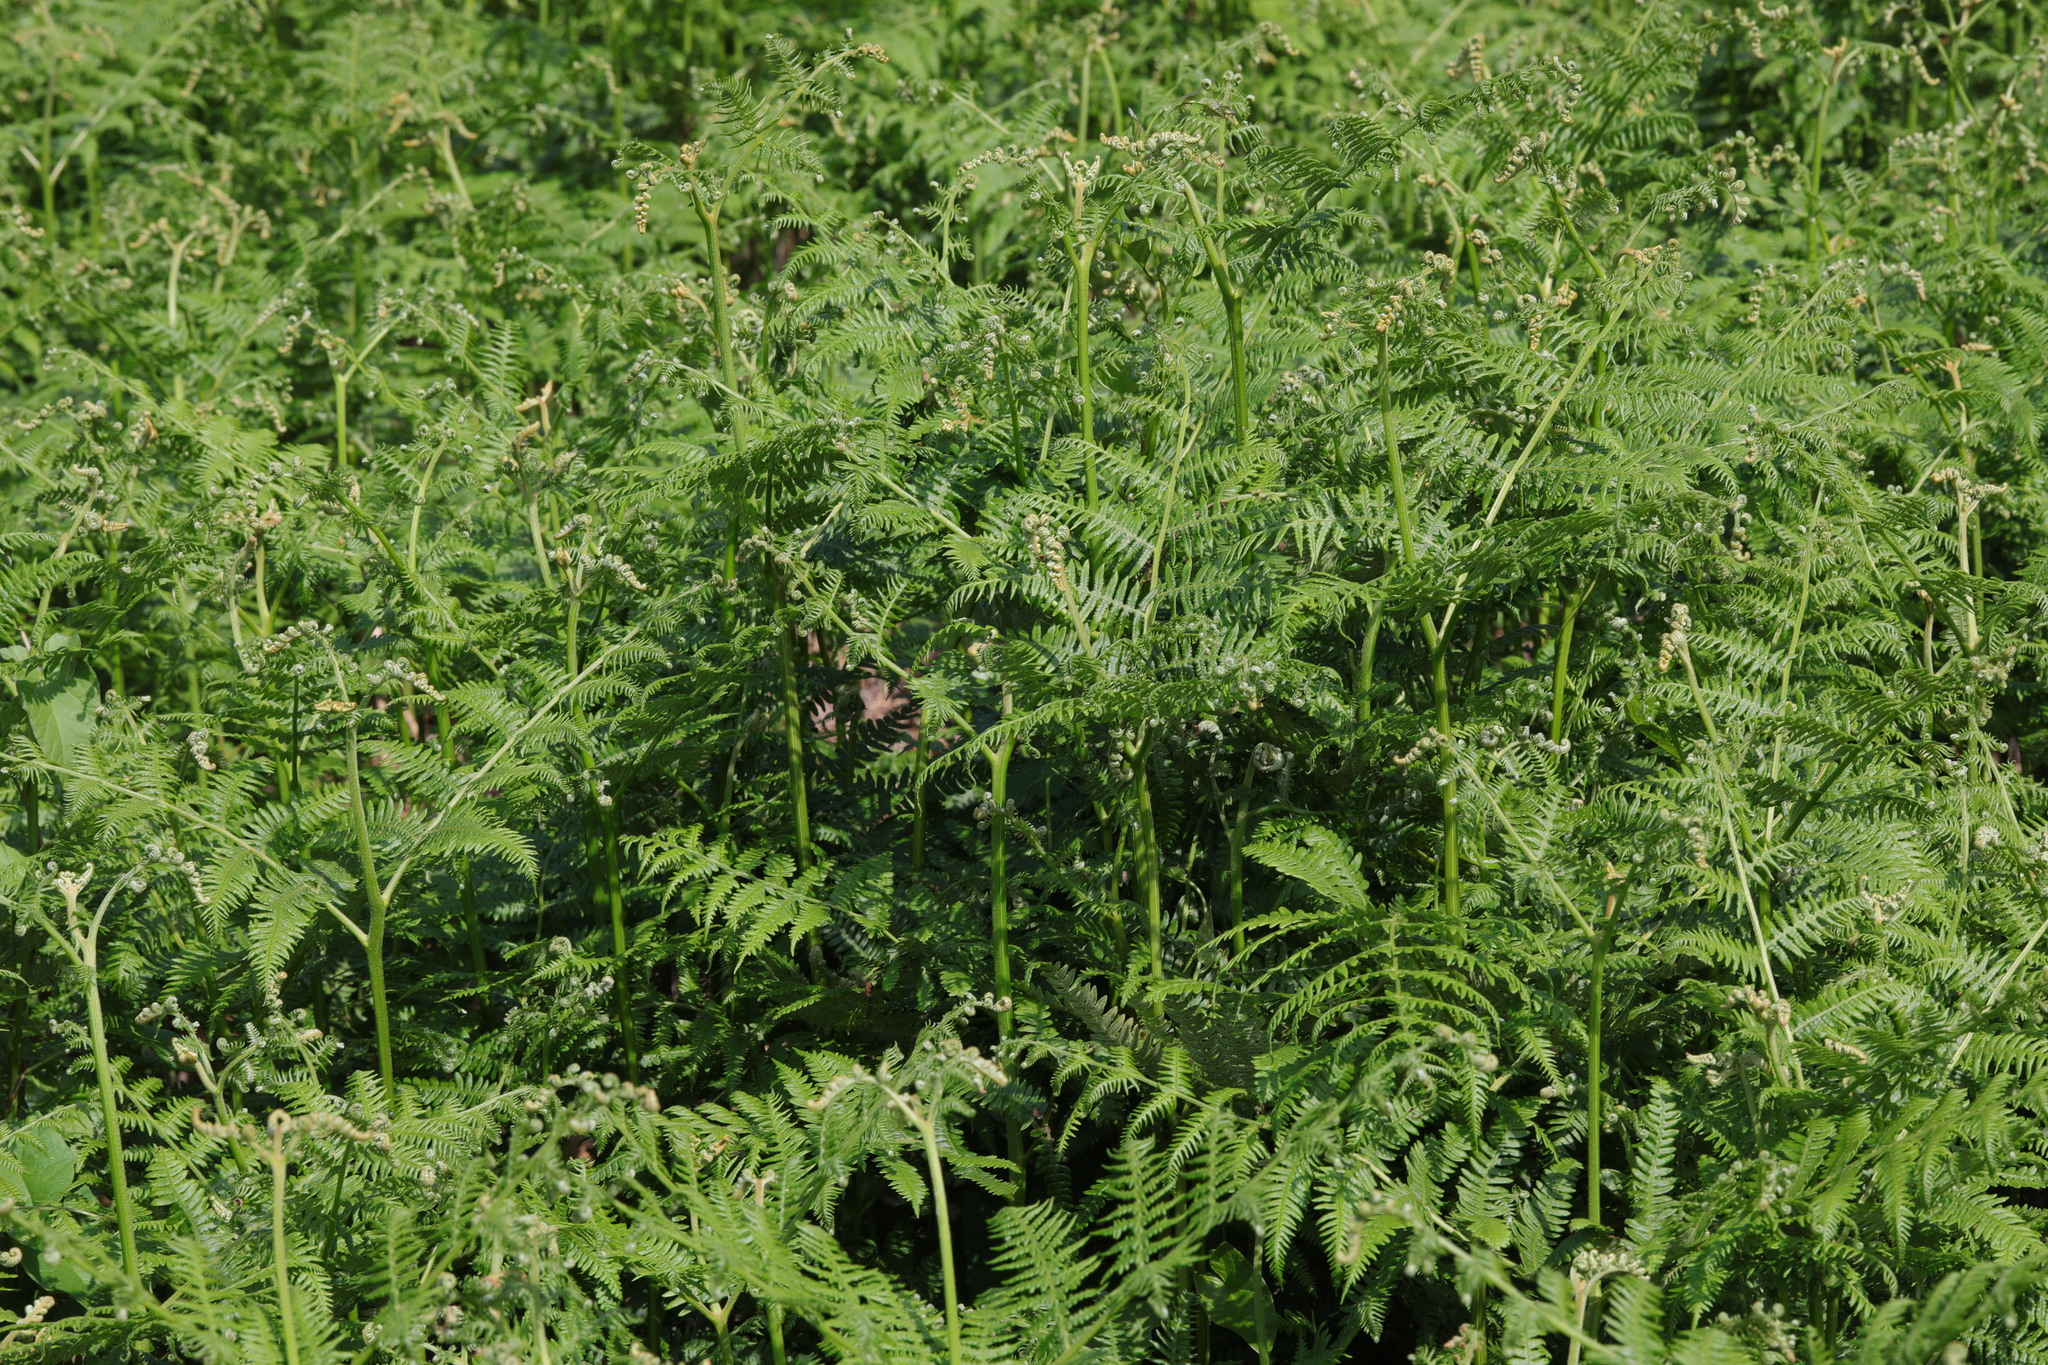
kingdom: Plantae
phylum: Tracheophyta
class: Polypodiopsida
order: Polypodiales
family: Dennstaedtiaceae
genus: Pteridium
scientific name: Pteridium aquilinum
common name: Bracken
